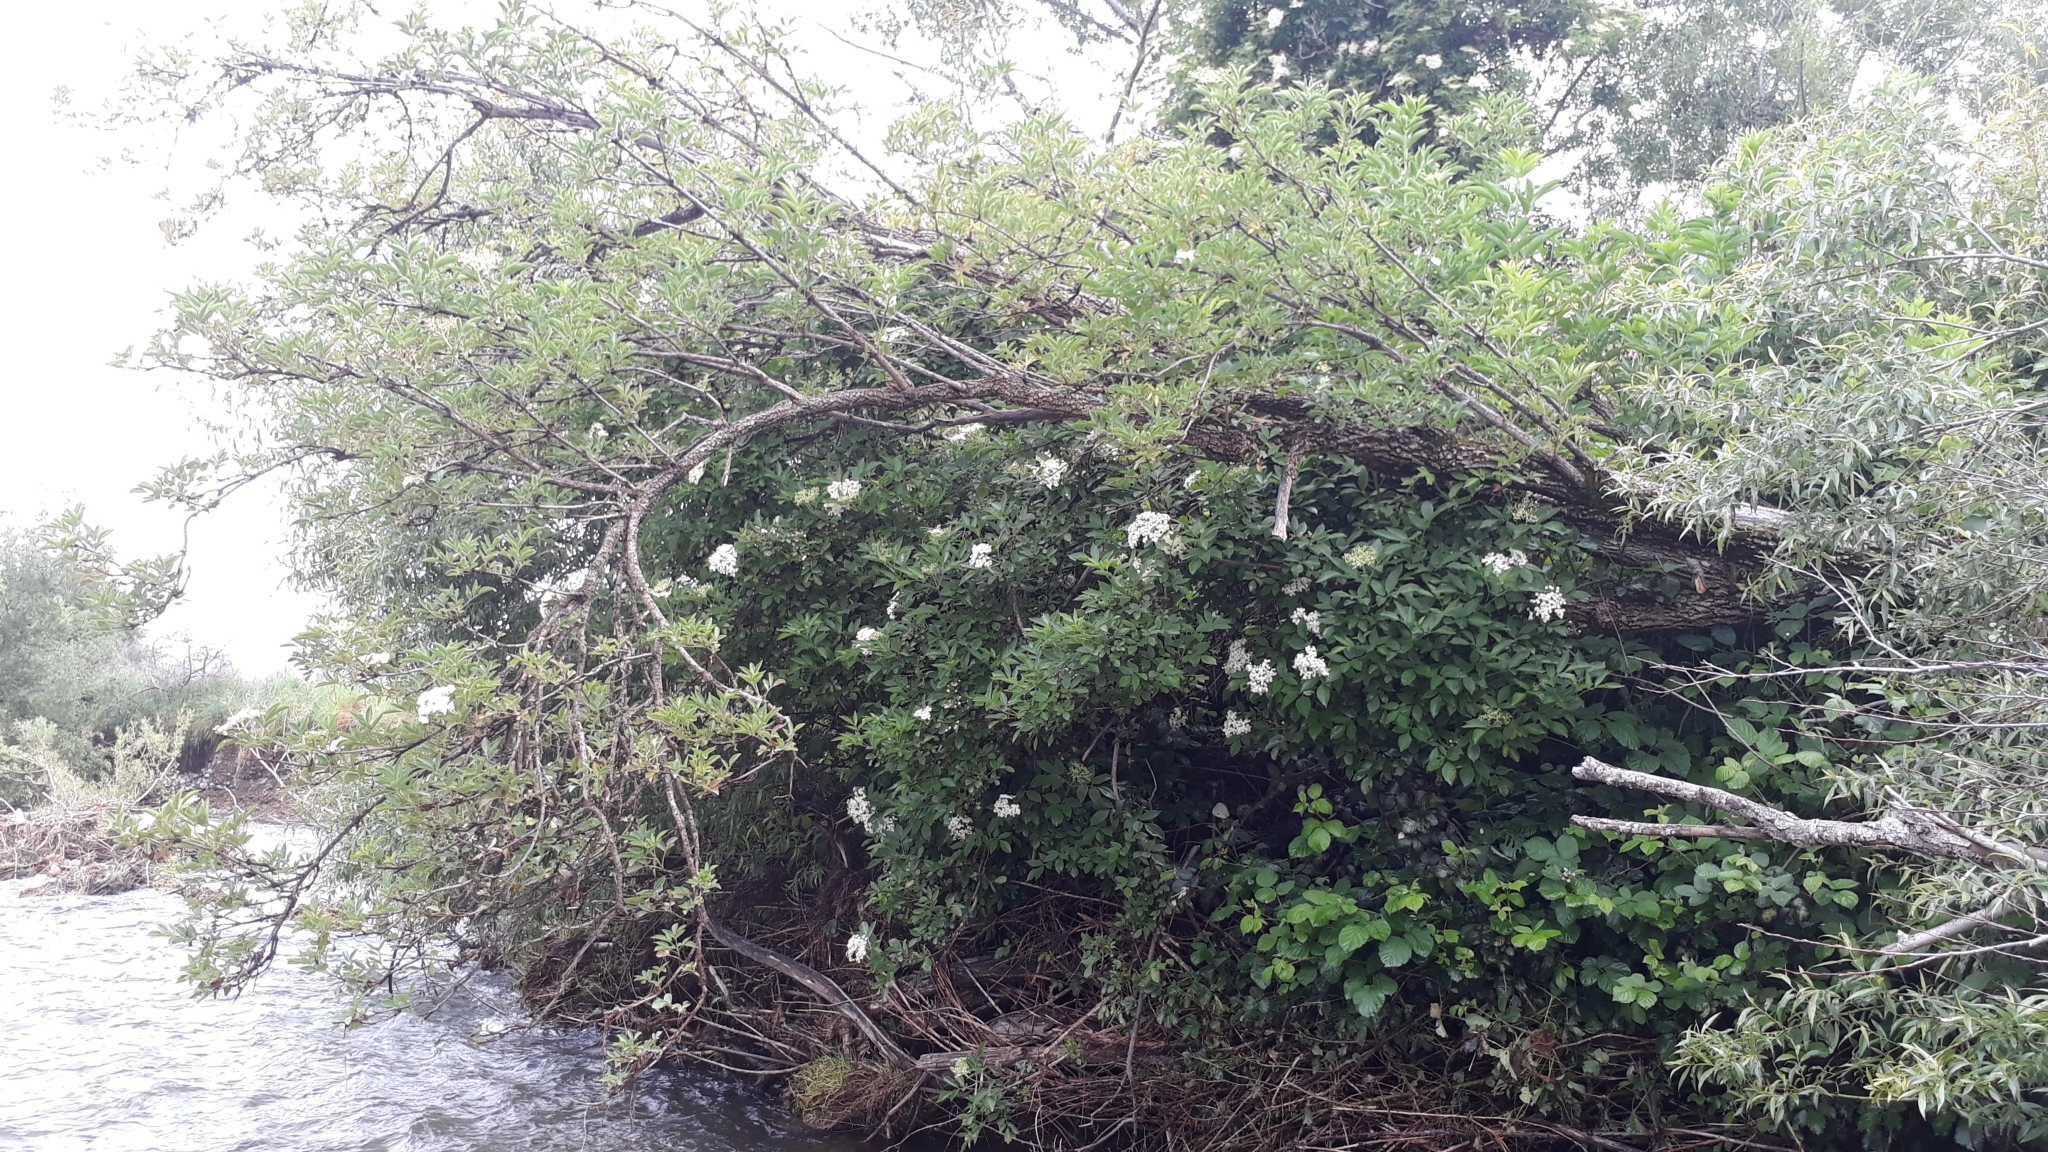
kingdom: Plantae
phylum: Tracheophyta
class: Magnoliopsida
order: Dipsacales
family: Viburnaceae
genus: Sambucus
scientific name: Sambucus nigra
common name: Elder
